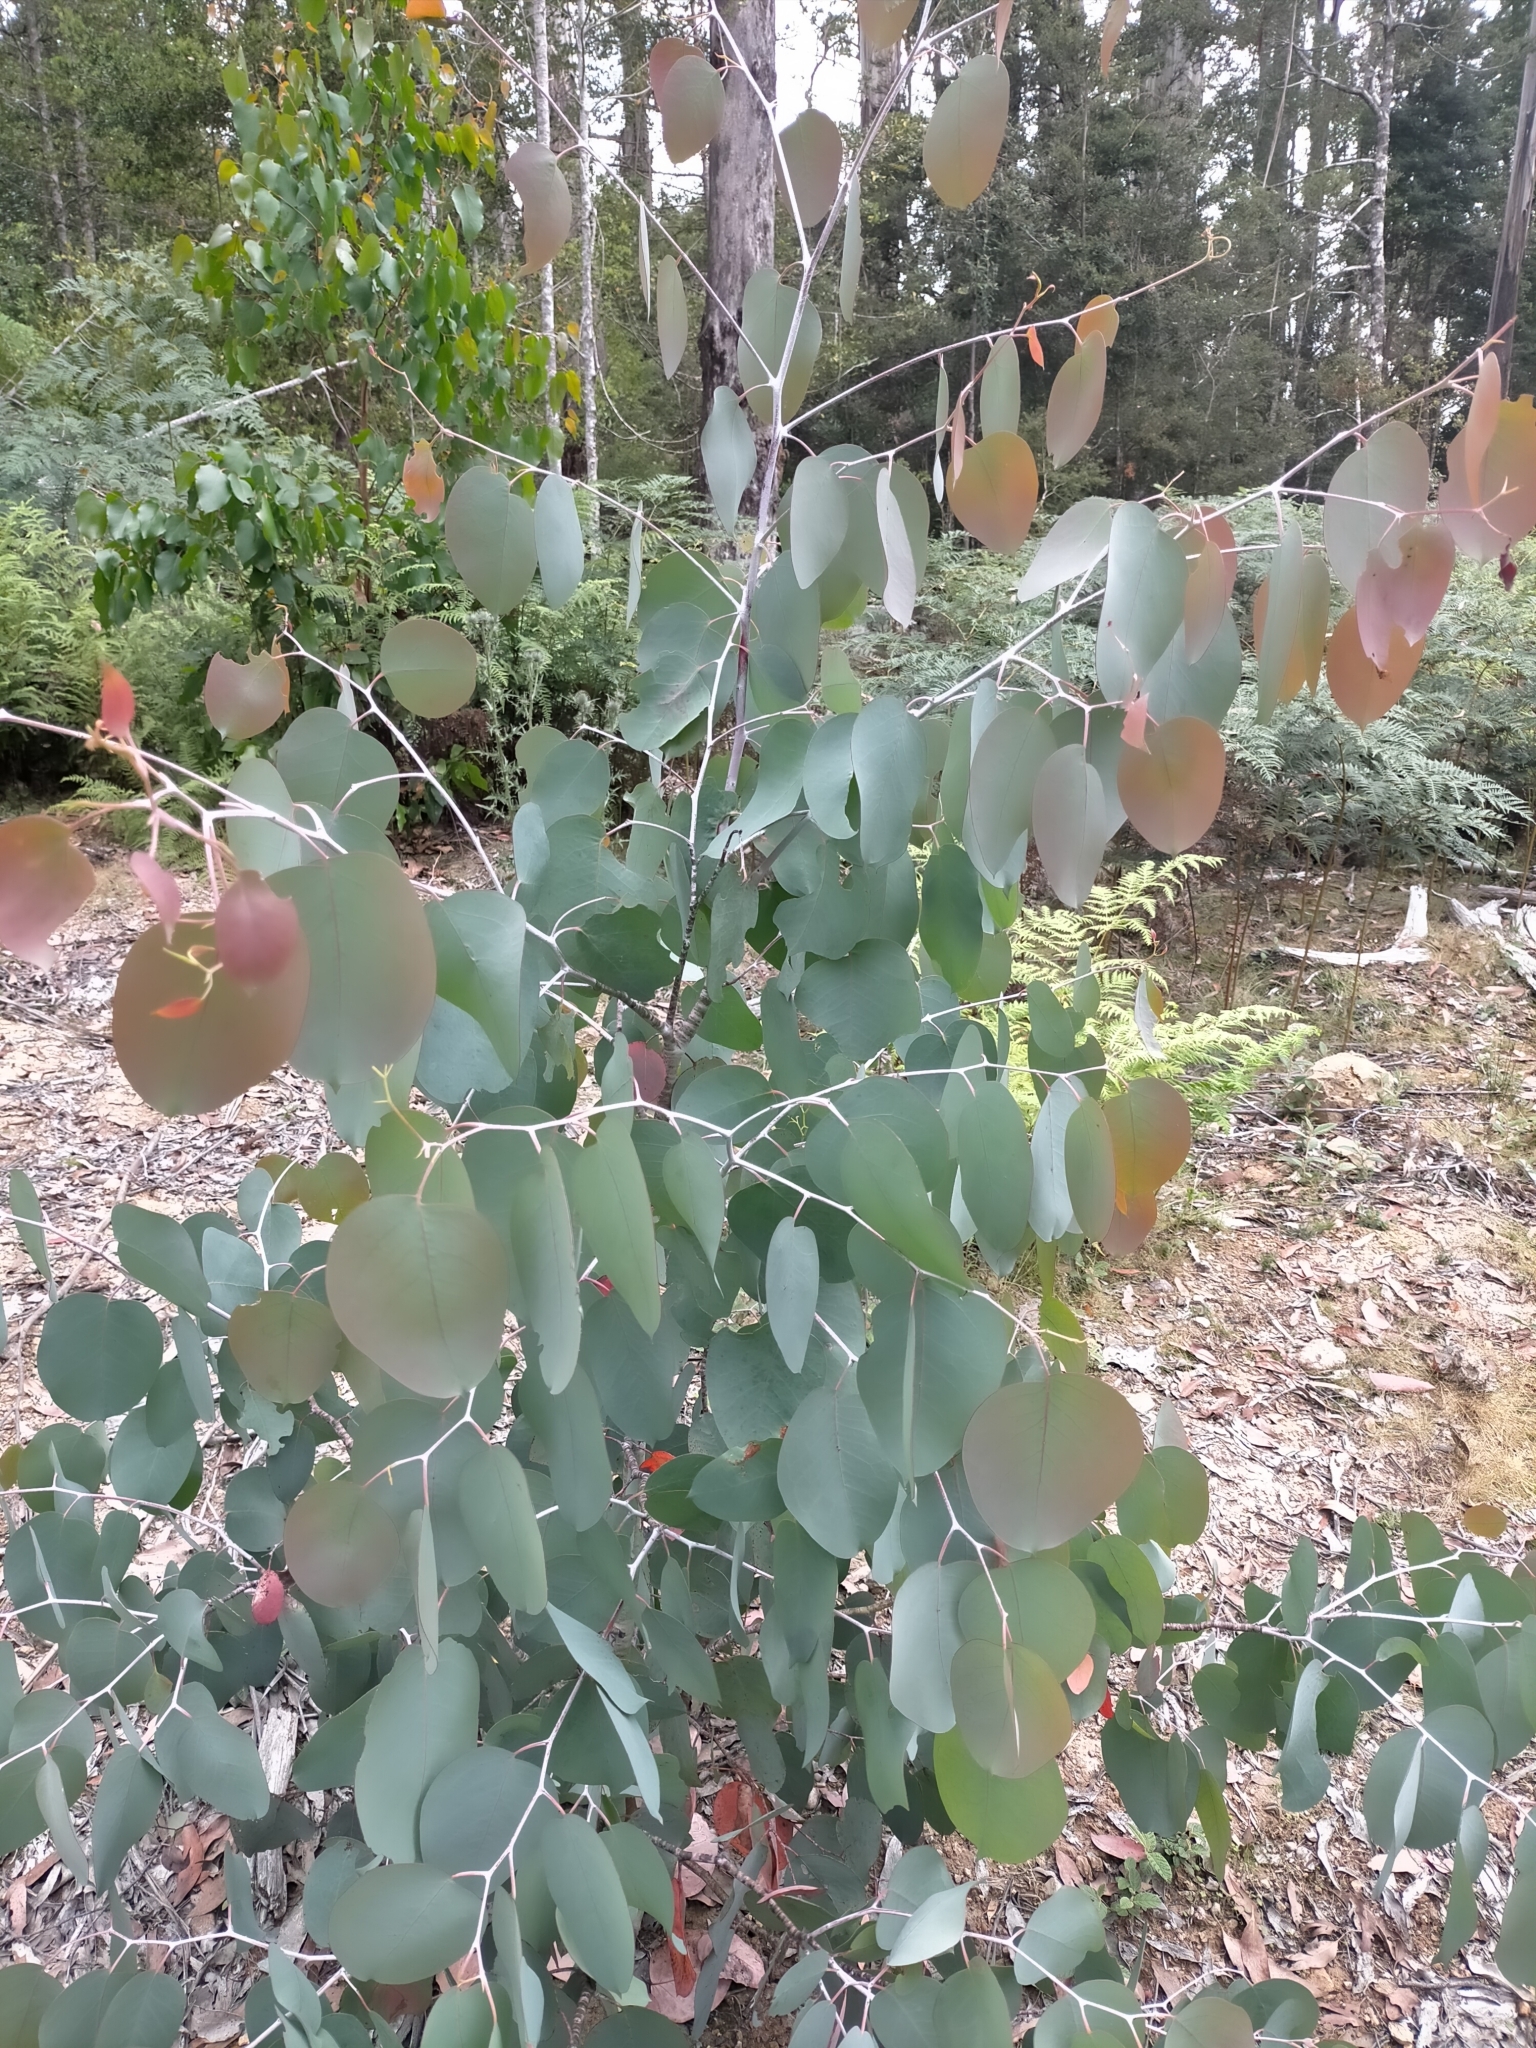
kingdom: Plantae
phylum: Tracheophyta
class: Magnoliopsida
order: Myrtales
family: Myrtaceae
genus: Eucalyptus
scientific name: Eucalyptus
